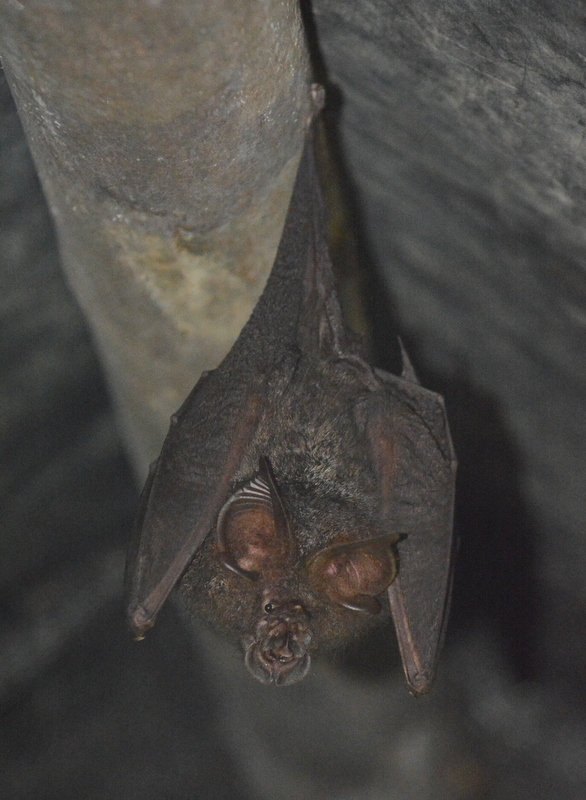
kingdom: Animalia
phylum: Chordata
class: Mammalia
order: Chiroptera
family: Rhinolophidae
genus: Rhinolophus
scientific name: Rhinolophus luctus
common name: Woolly horseshoe bat
